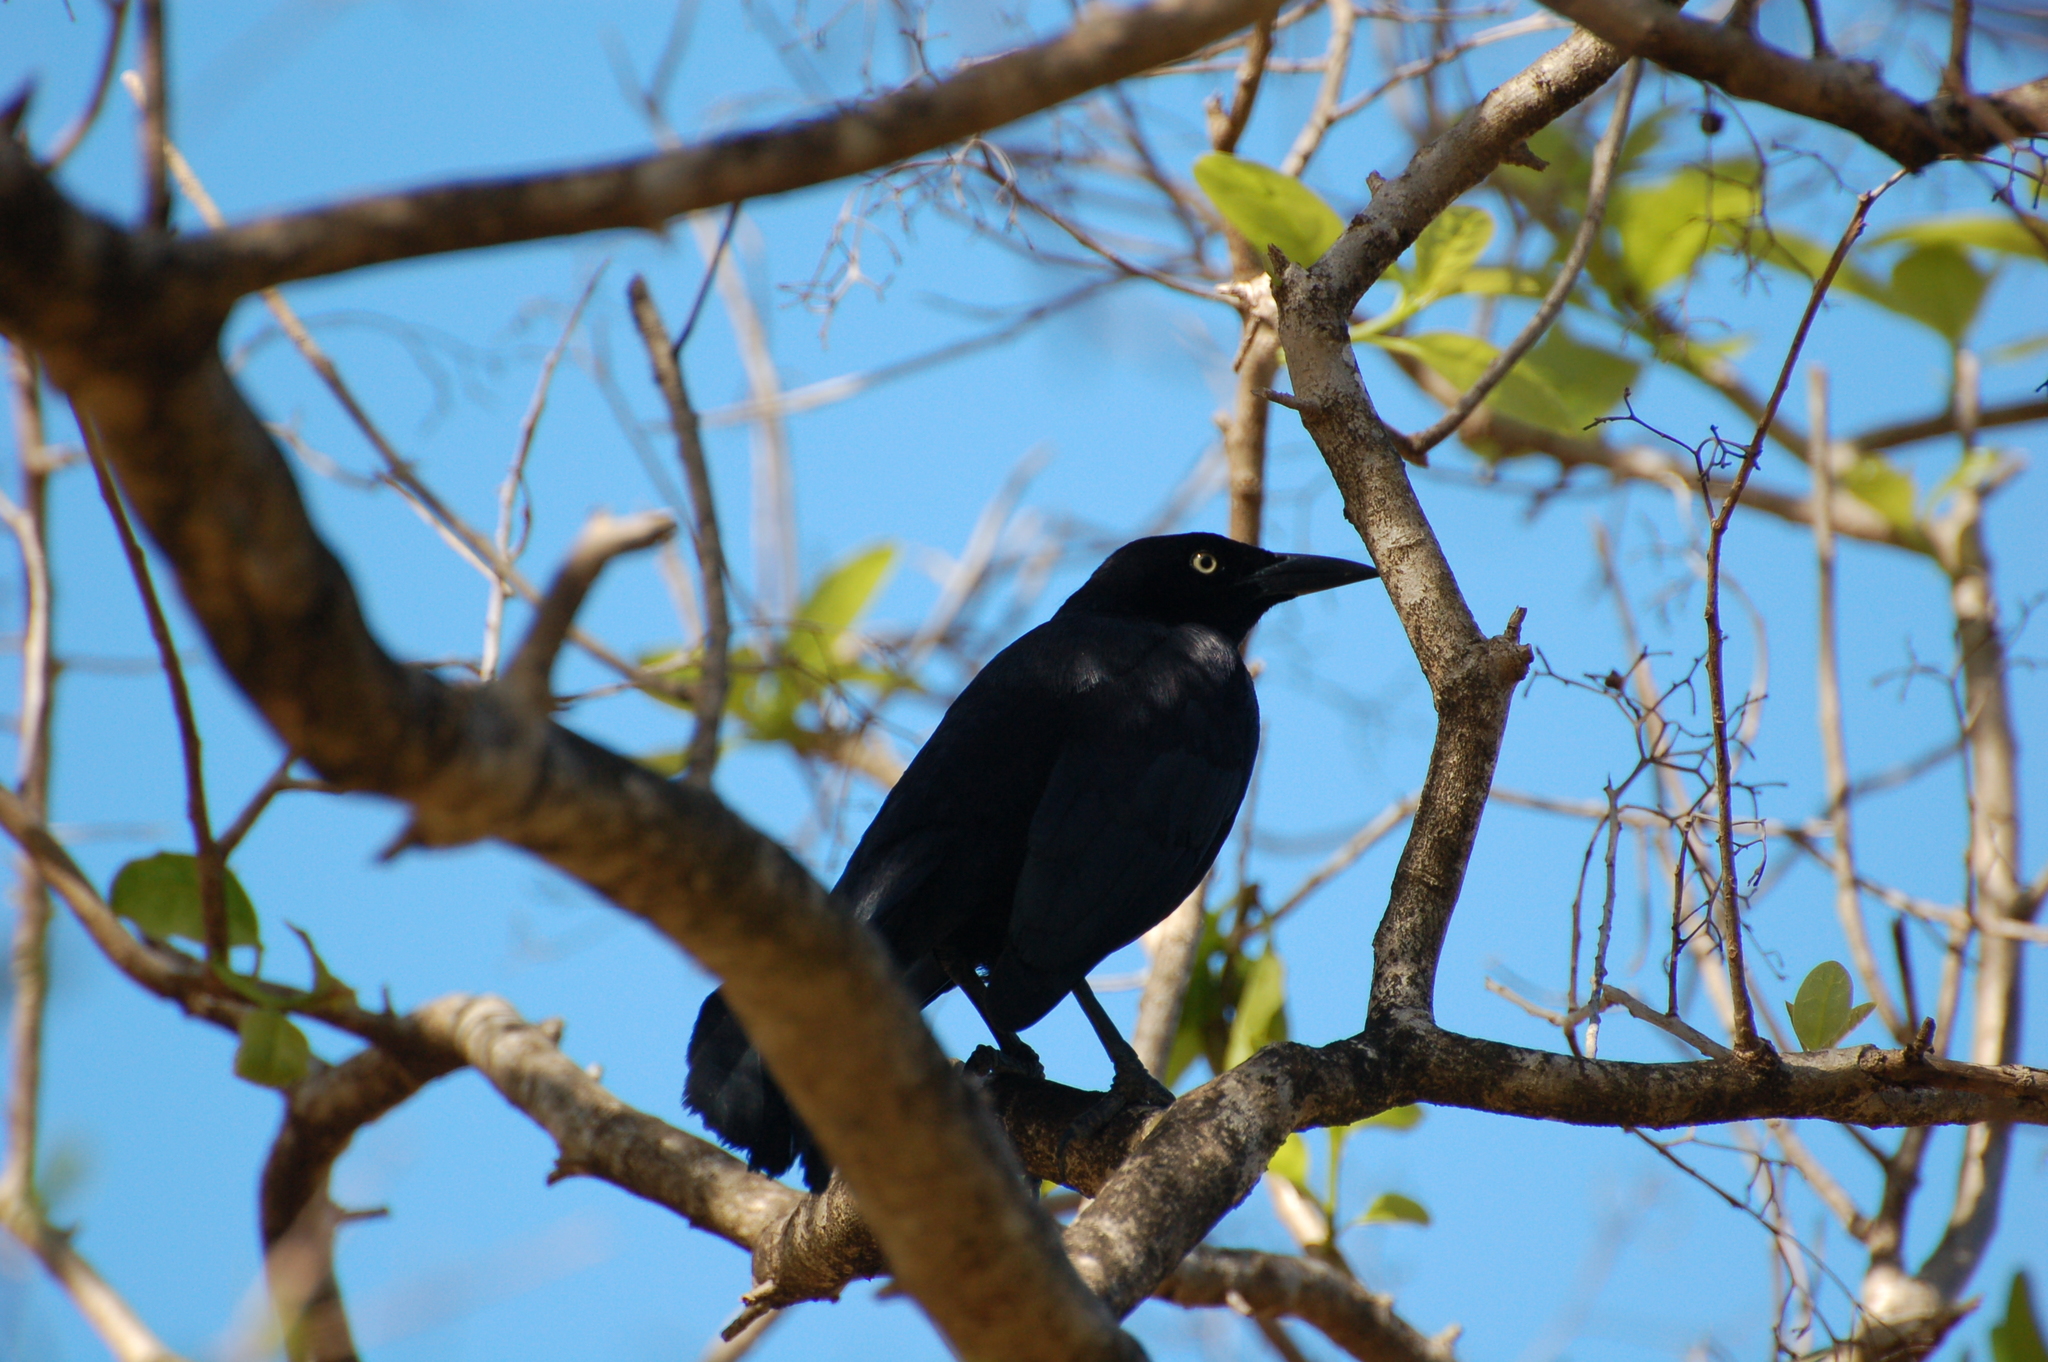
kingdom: Animalia
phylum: Chordata
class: Aves
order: Passeriformes
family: Icteridae
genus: Quiscalus
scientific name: Quiscalus lugubris
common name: Carib grackle
